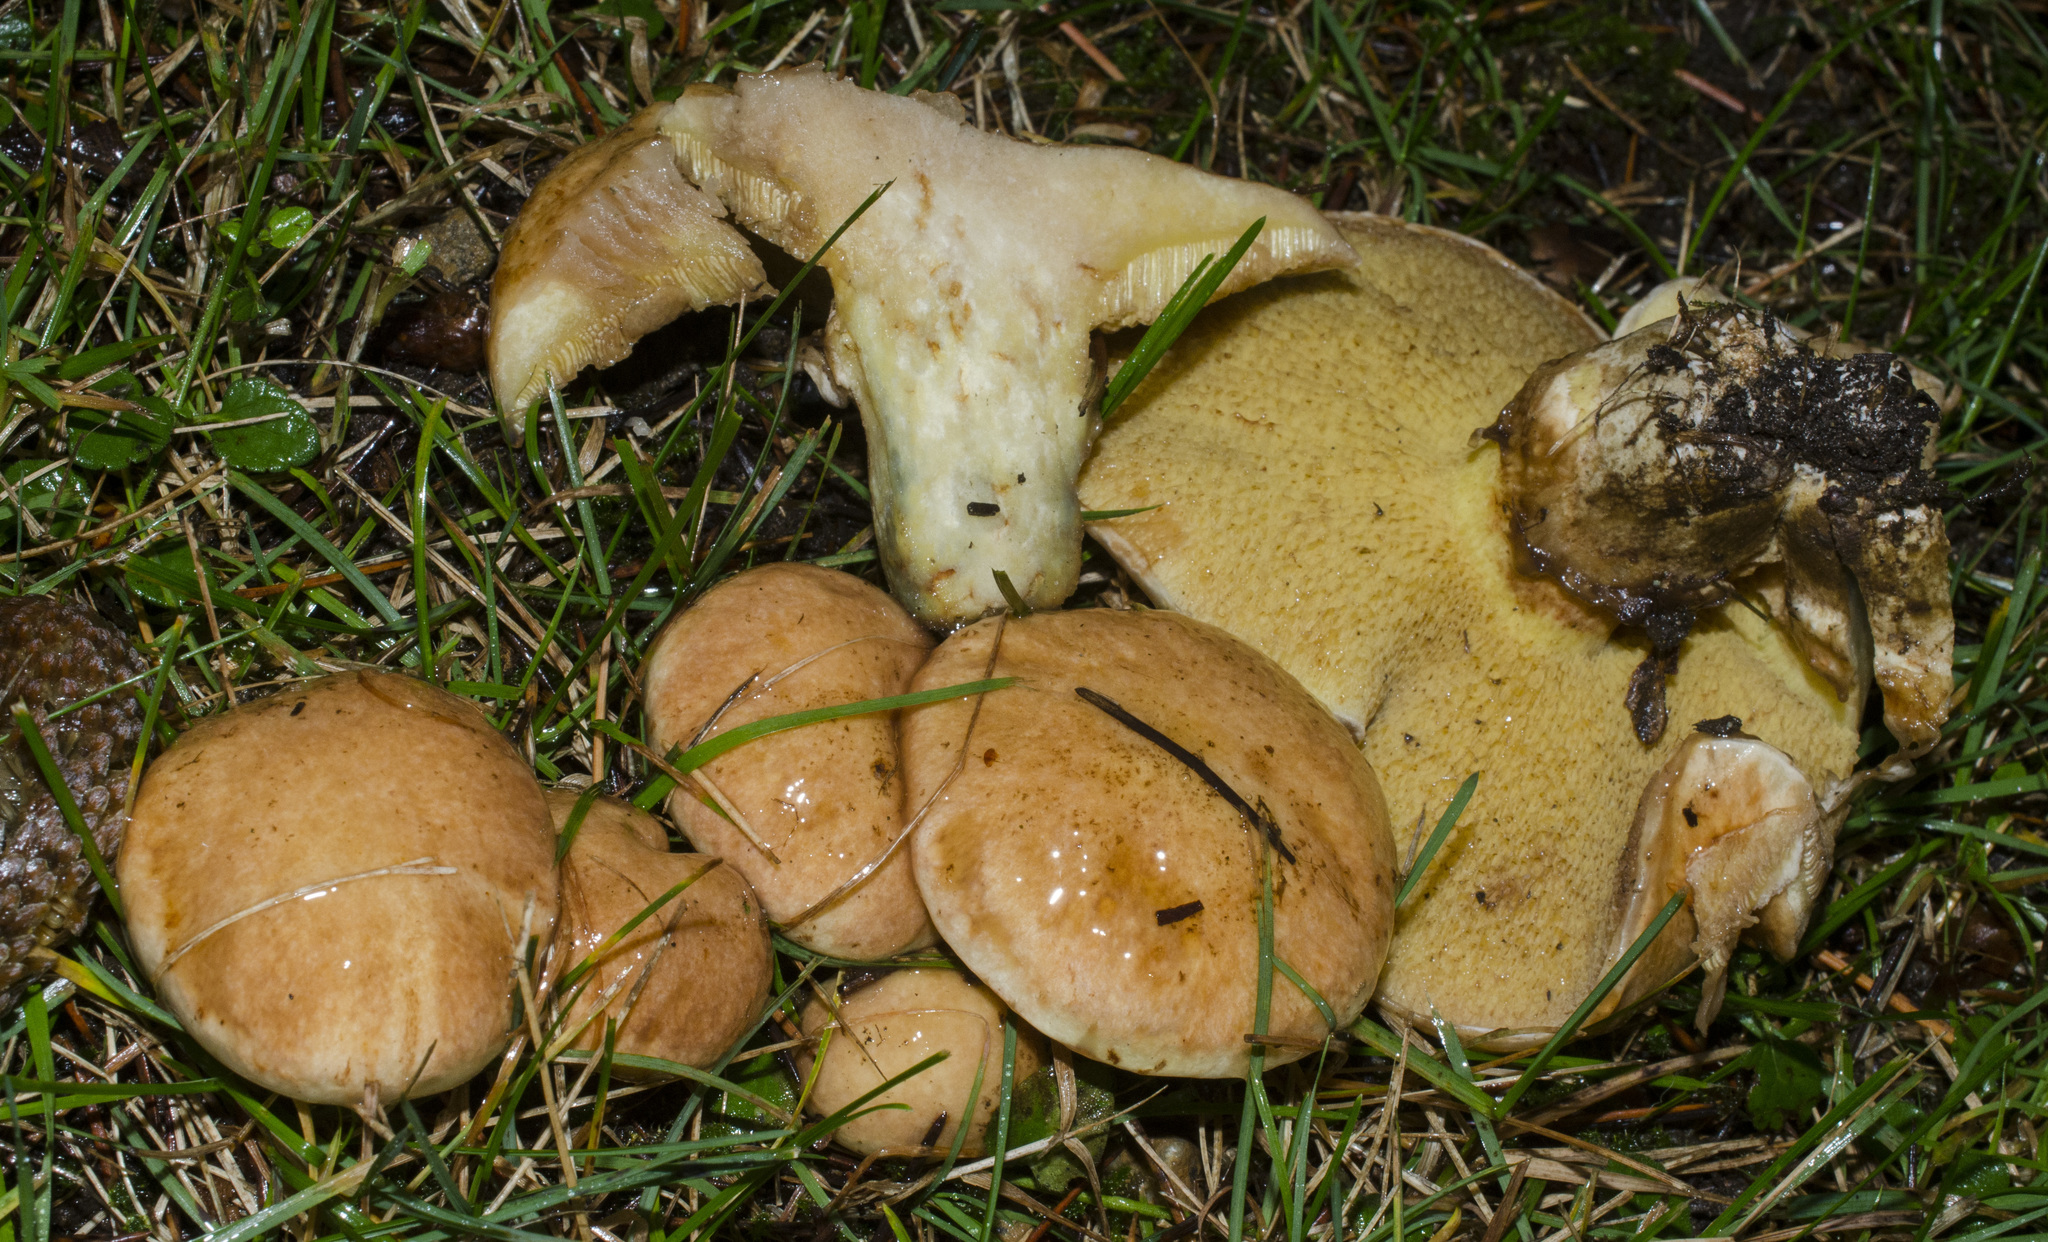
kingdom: Fungi
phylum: Basidiomycota
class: Agaricomycetes
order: Boletales
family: Suillaceae
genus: Suillus
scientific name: Suillus caerulescens
